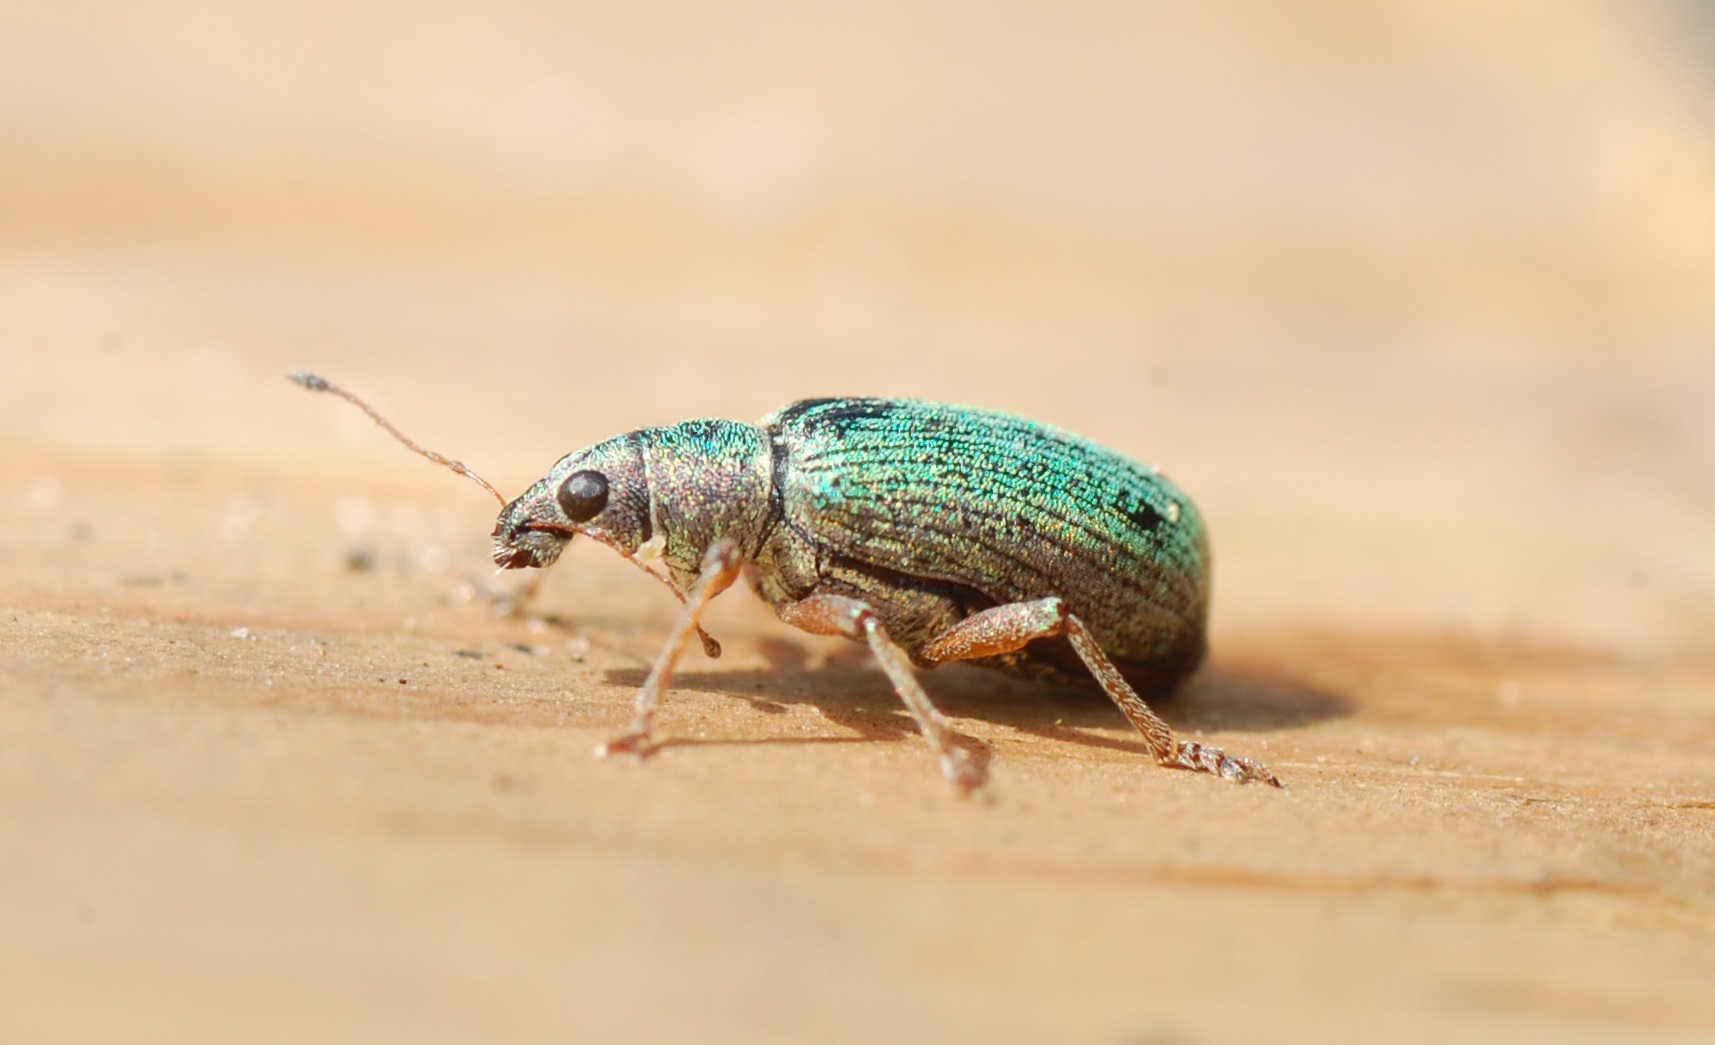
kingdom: Animalia
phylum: Arthropoda
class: Insecta
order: Coleoptera
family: Curculionidae
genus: Polydrusus
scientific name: Polydrusus formosus
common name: Weevil
